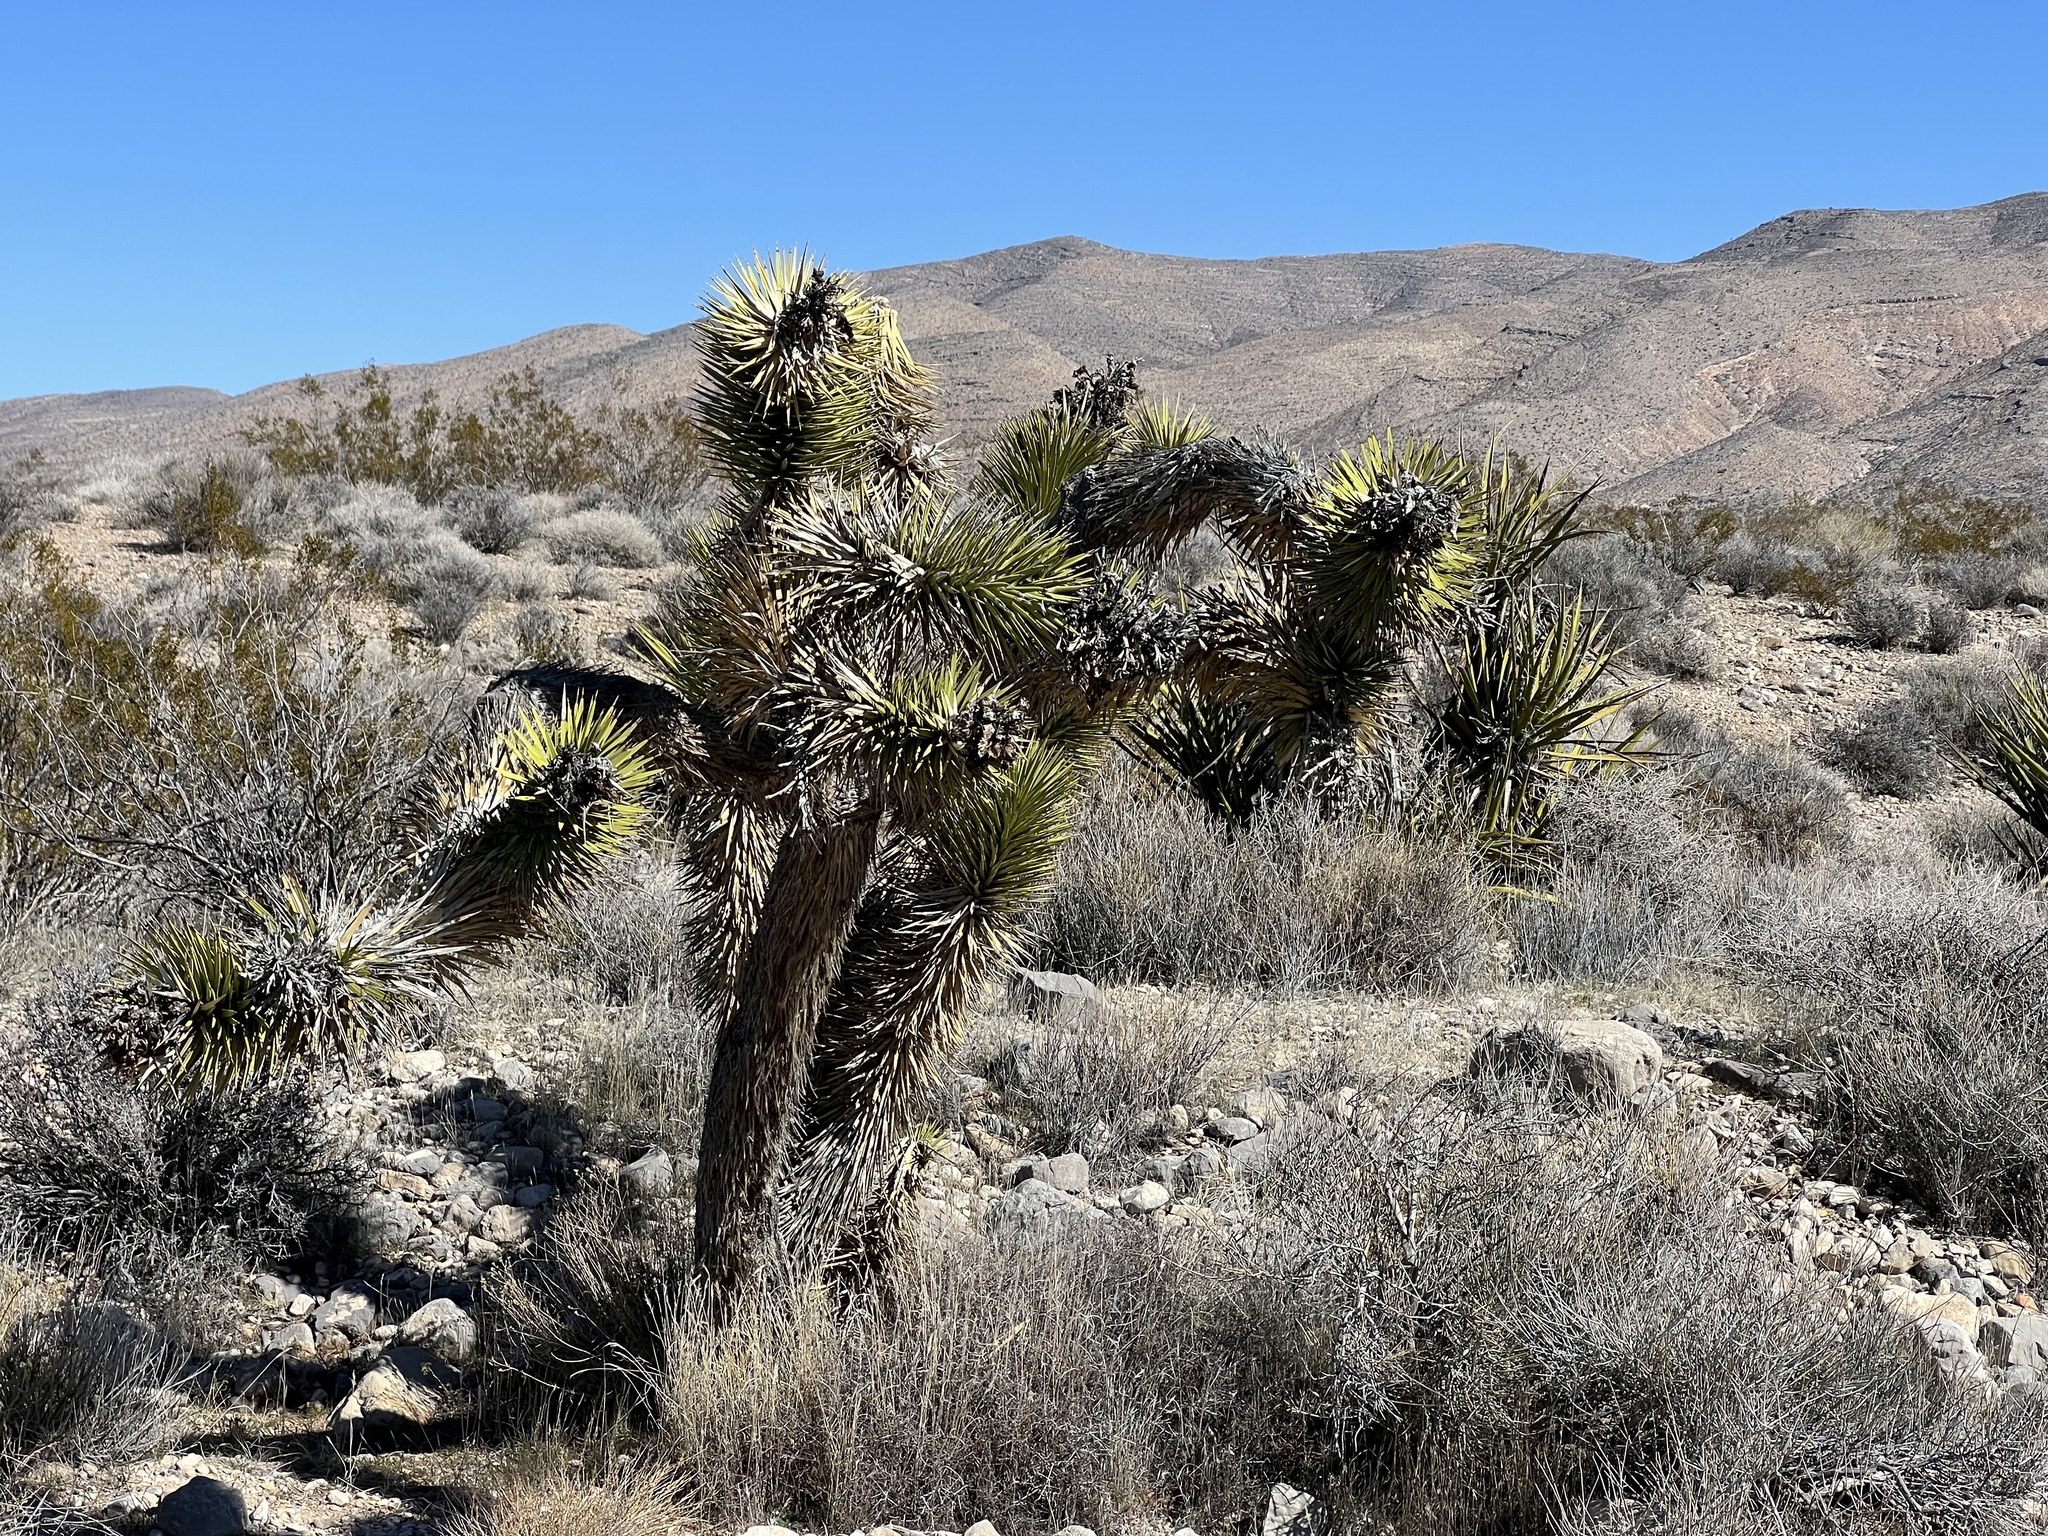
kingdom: Plantae
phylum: Tracheophyta
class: Liliopsida
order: Asparagales
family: Asparagaceae
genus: Yucca
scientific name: Yucca brevifolia
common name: Joshua tree
